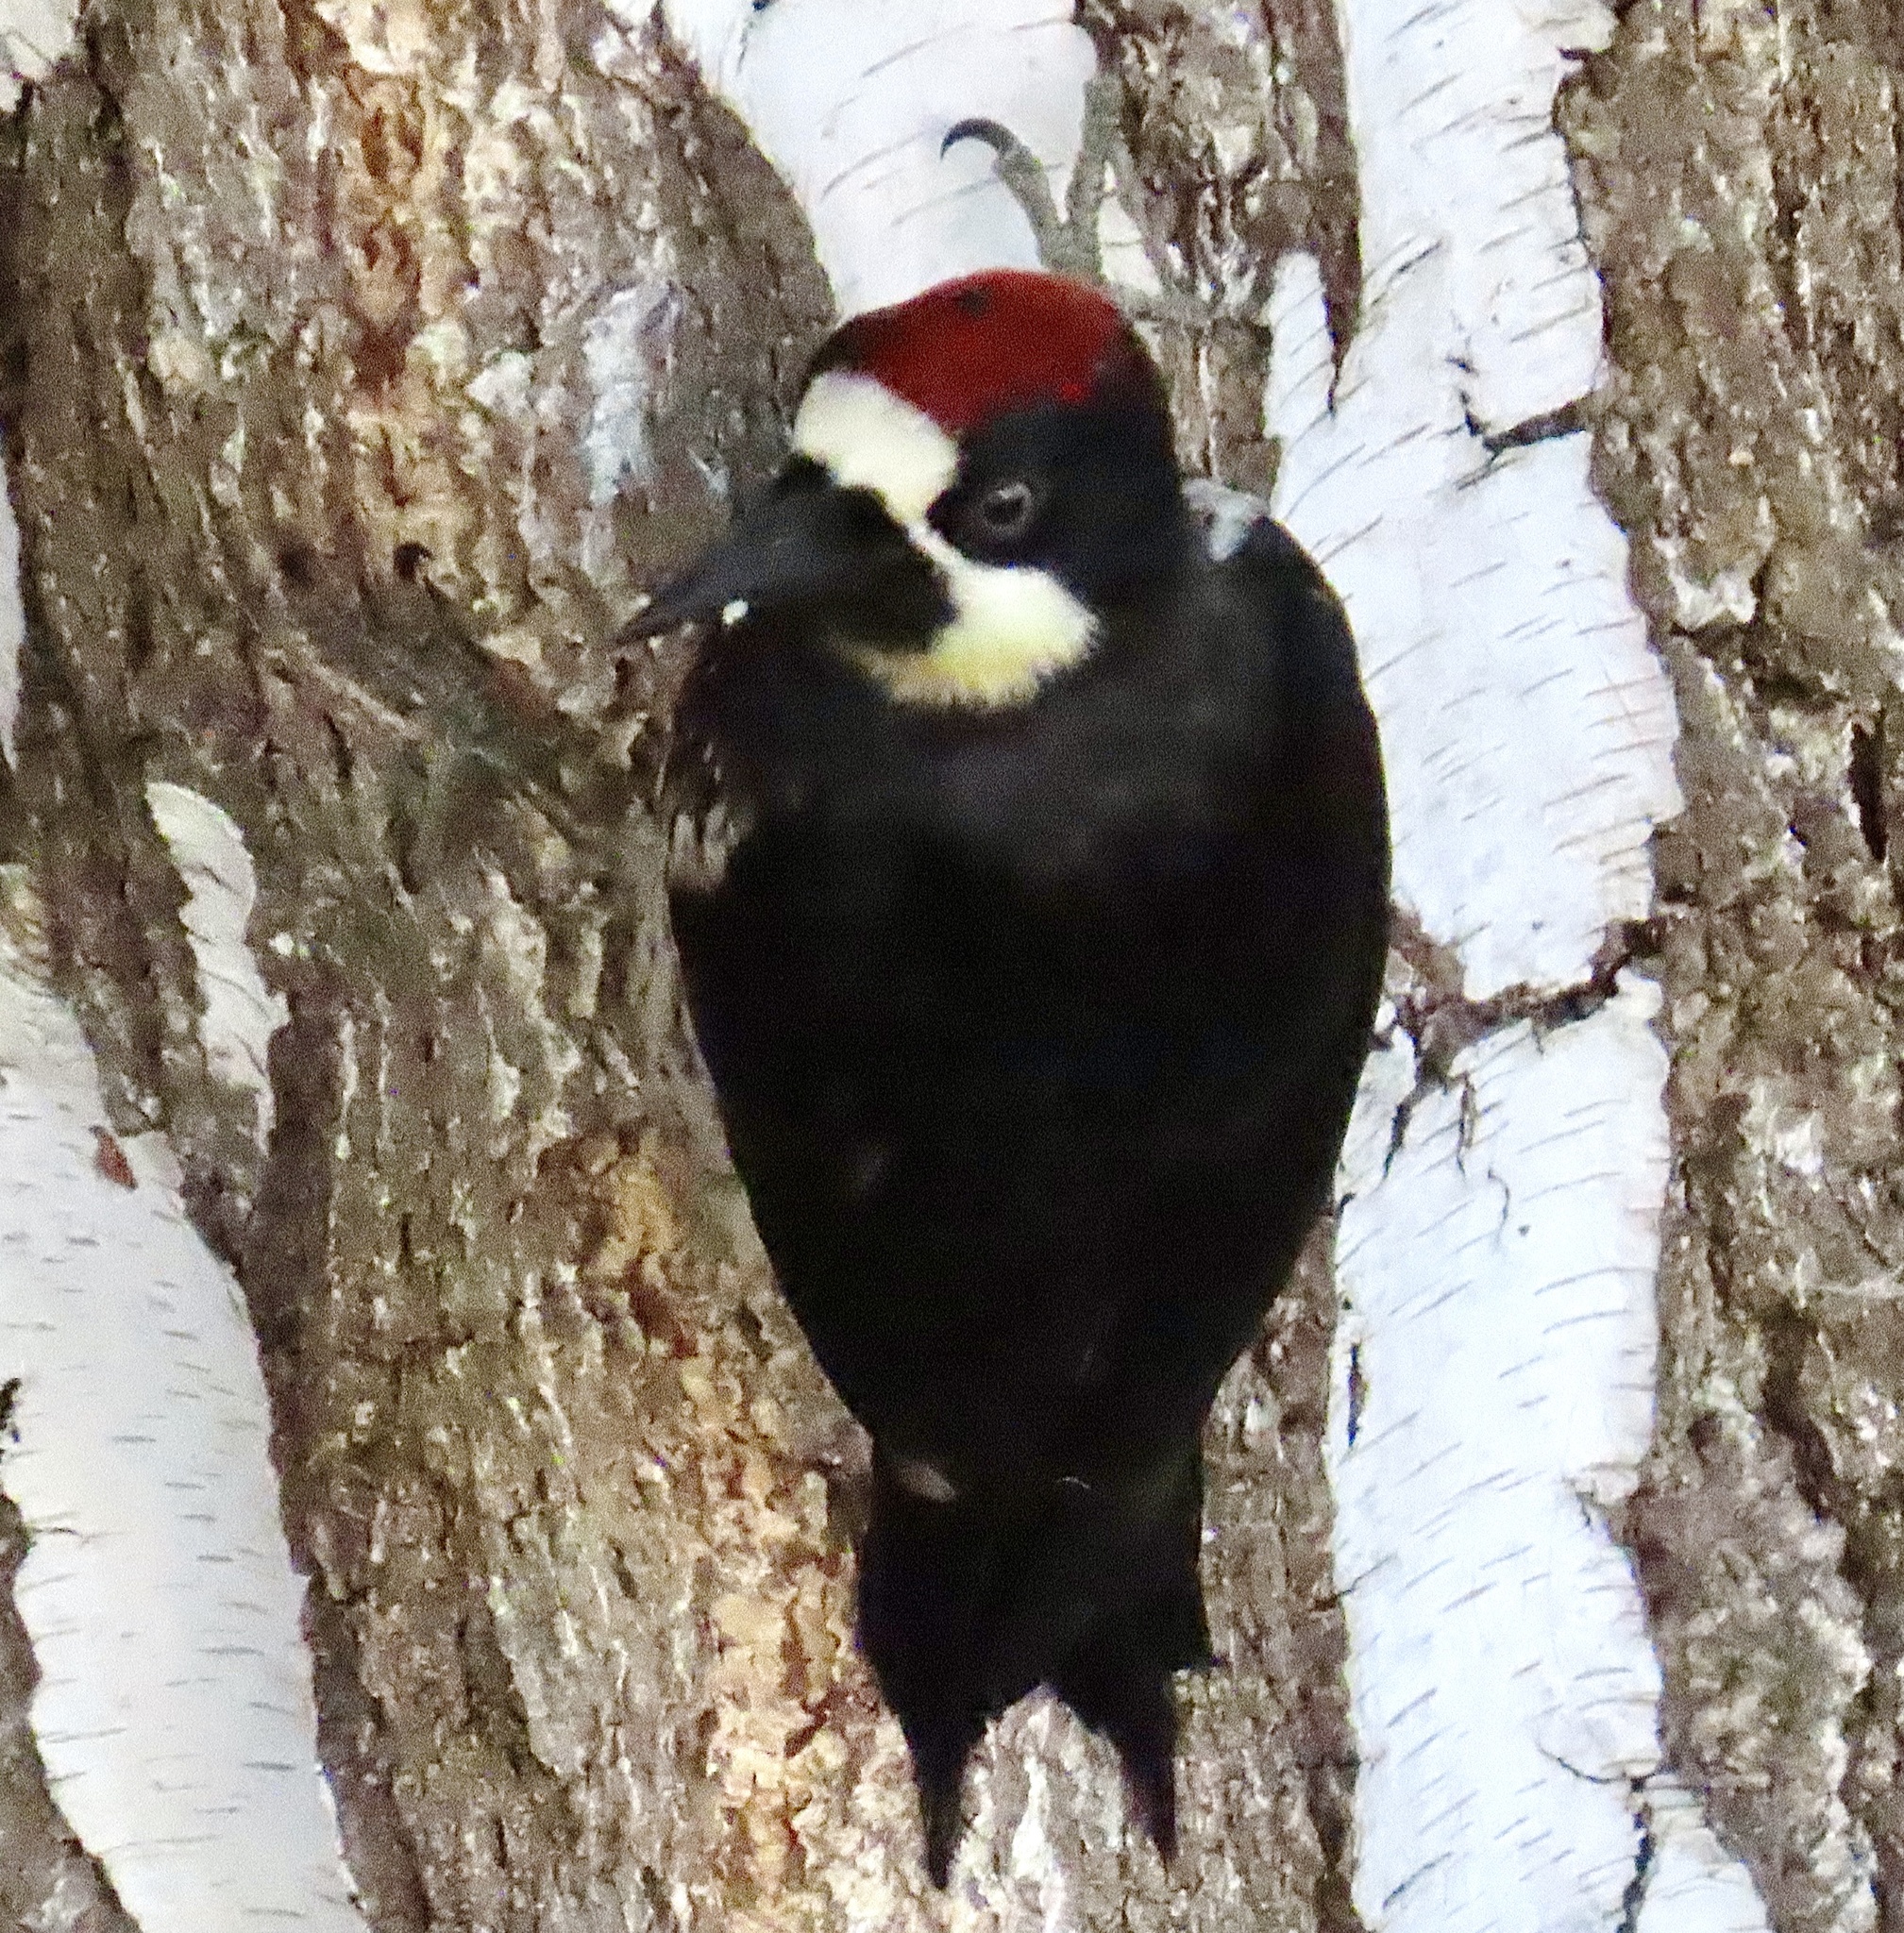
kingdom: Animalia
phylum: Chordata
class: Aves
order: Piciformes
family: Picidae
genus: Melanerpes
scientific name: Melanerpes formicivorus
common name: Acorn woodpecker
